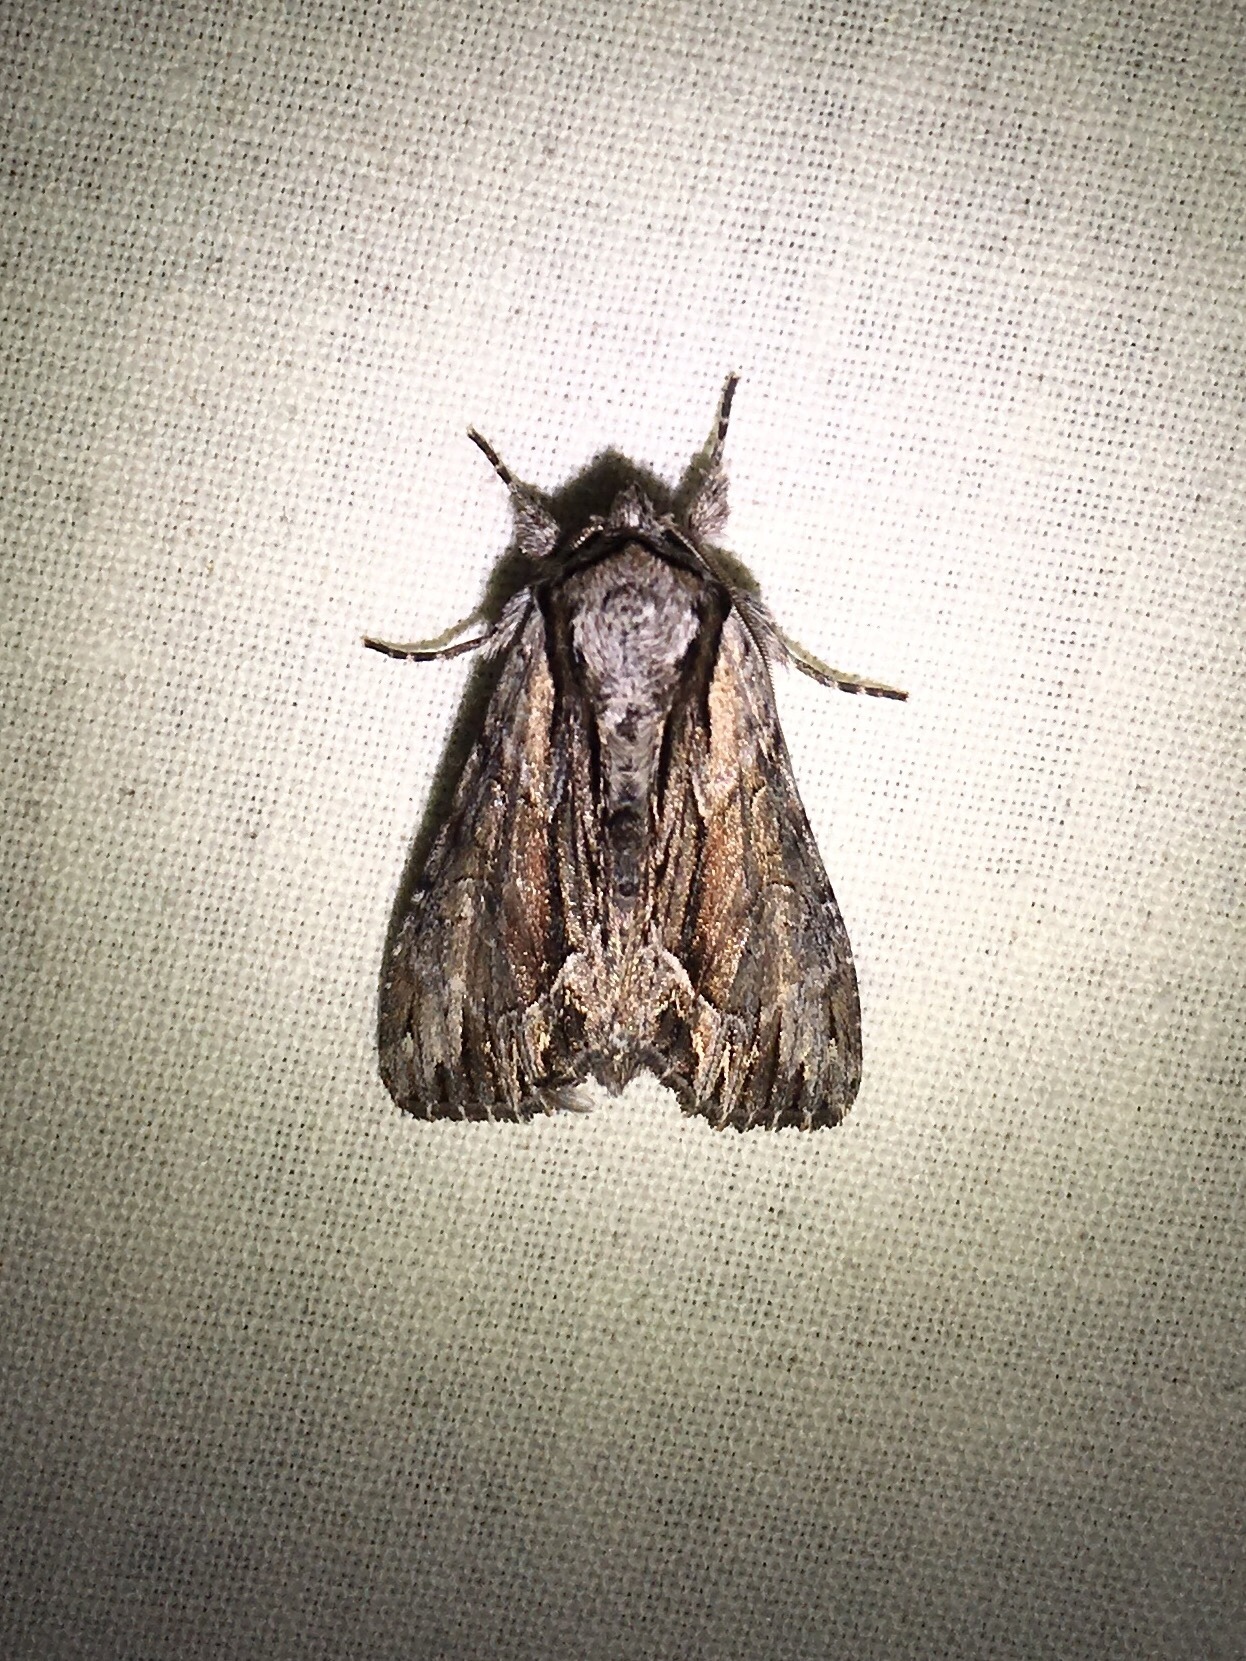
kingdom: Animalia
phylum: Arthropoda
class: Insecta
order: Lepidoptera
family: Noctuidae
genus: Hyppa
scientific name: Hyppa xylinoides
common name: Common hyppa moth
